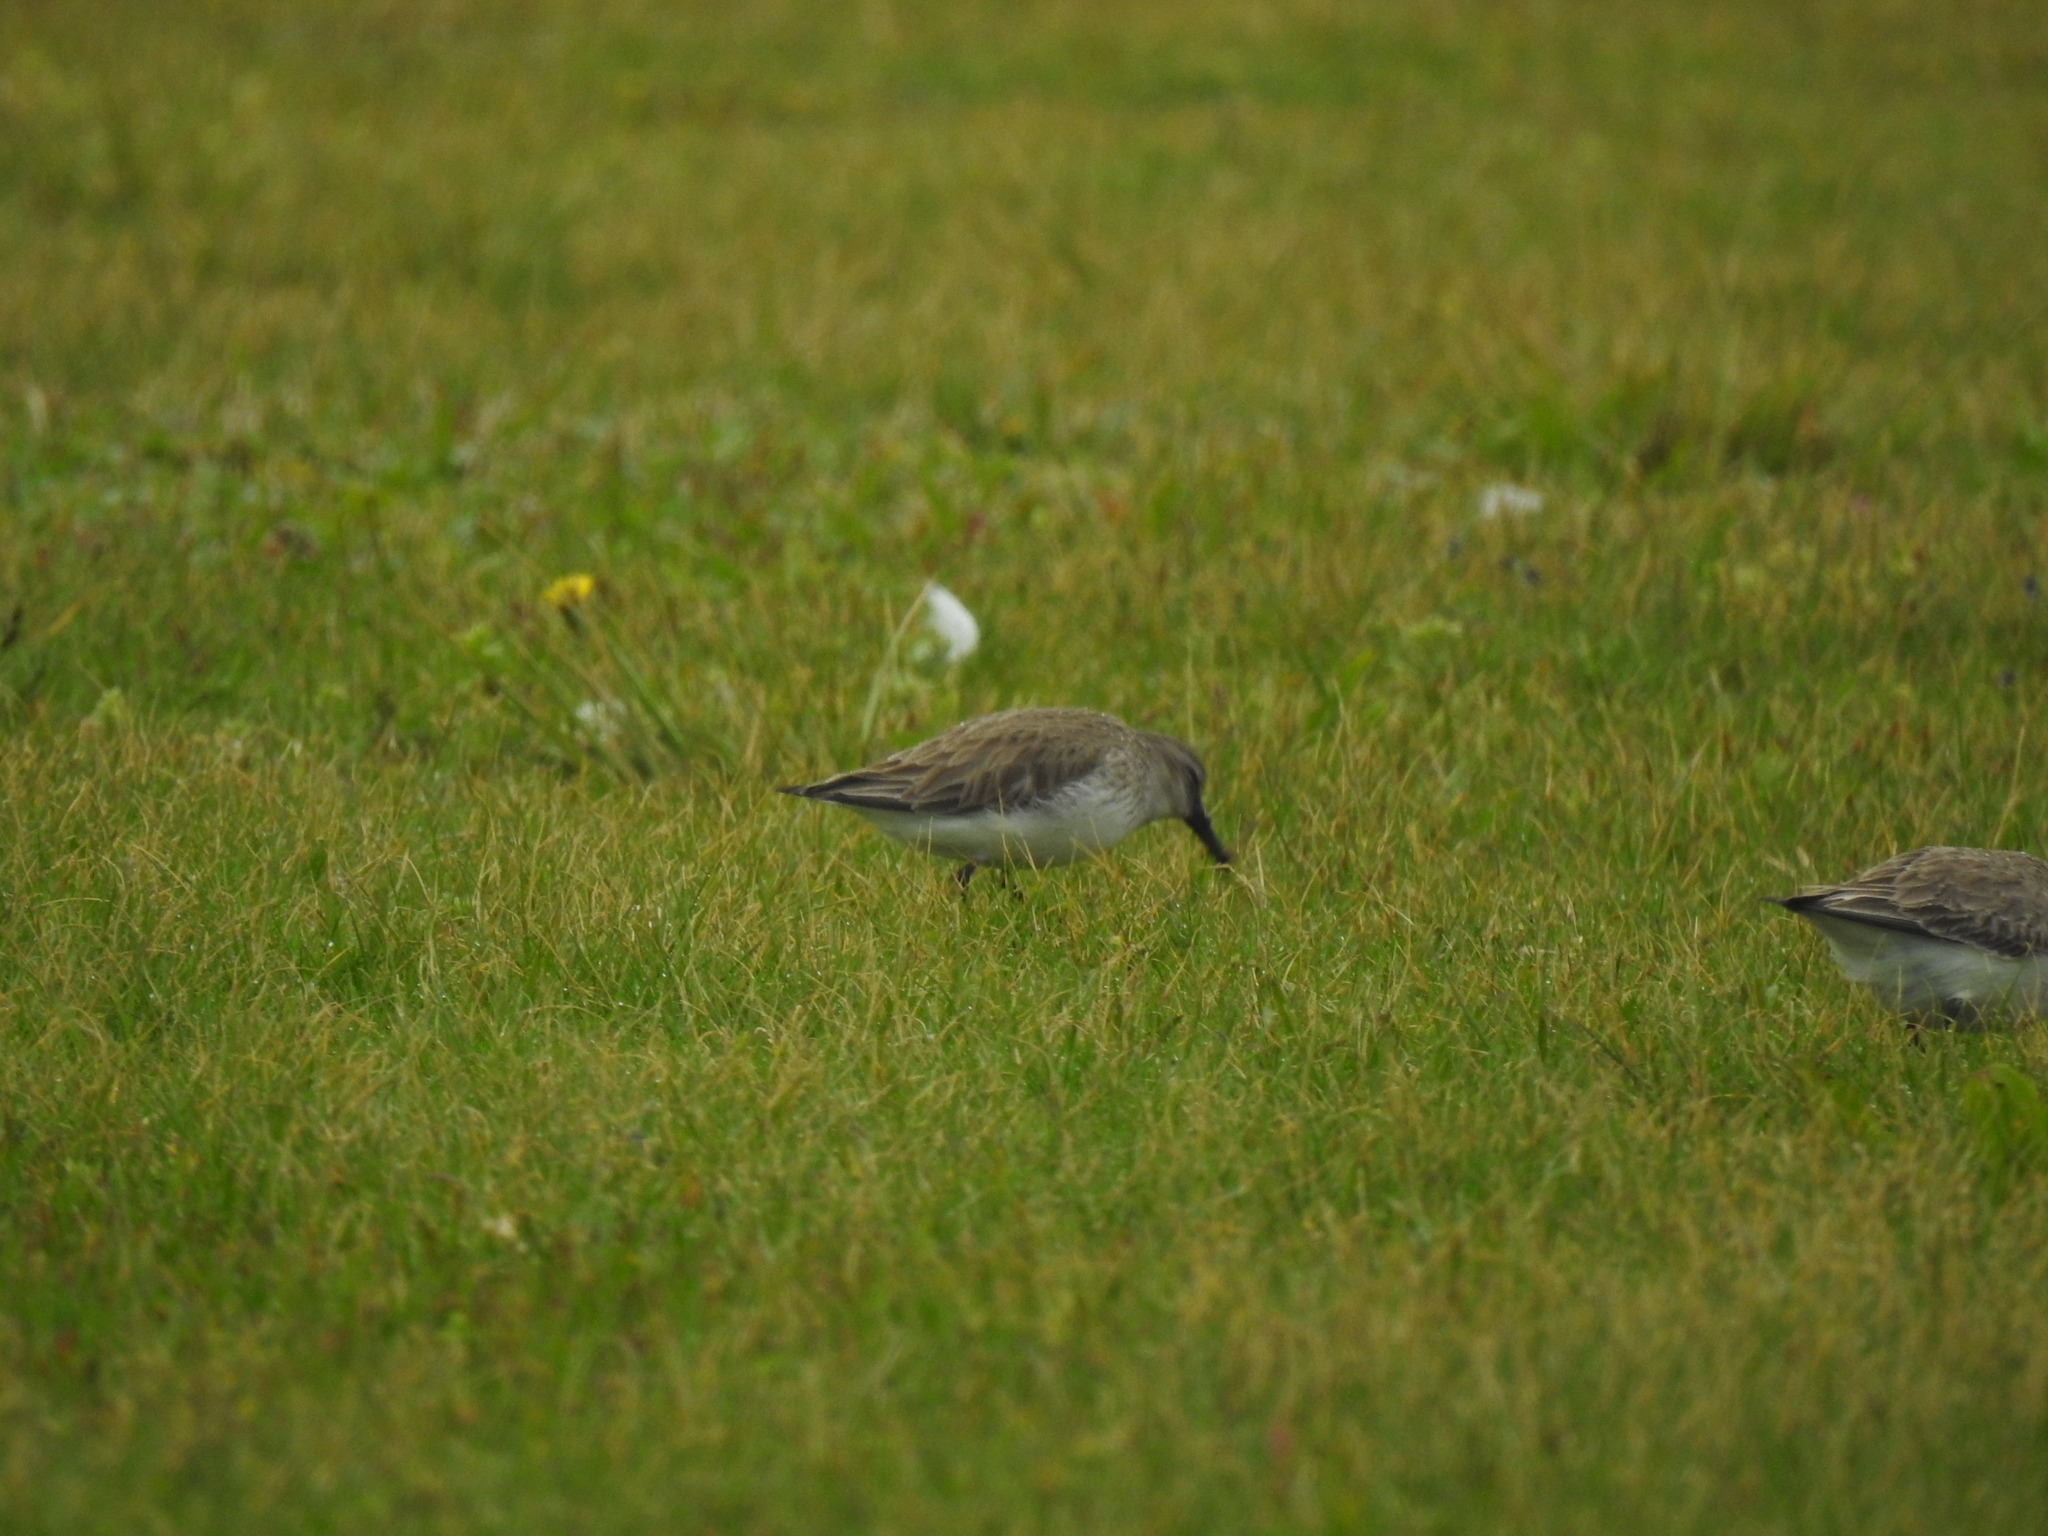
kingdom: Animalia
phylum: Chordata
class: Aves
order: Charadriiformes
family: Scolopacidae
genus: Calidris
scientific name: Calidris alpina
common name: Dunlin
